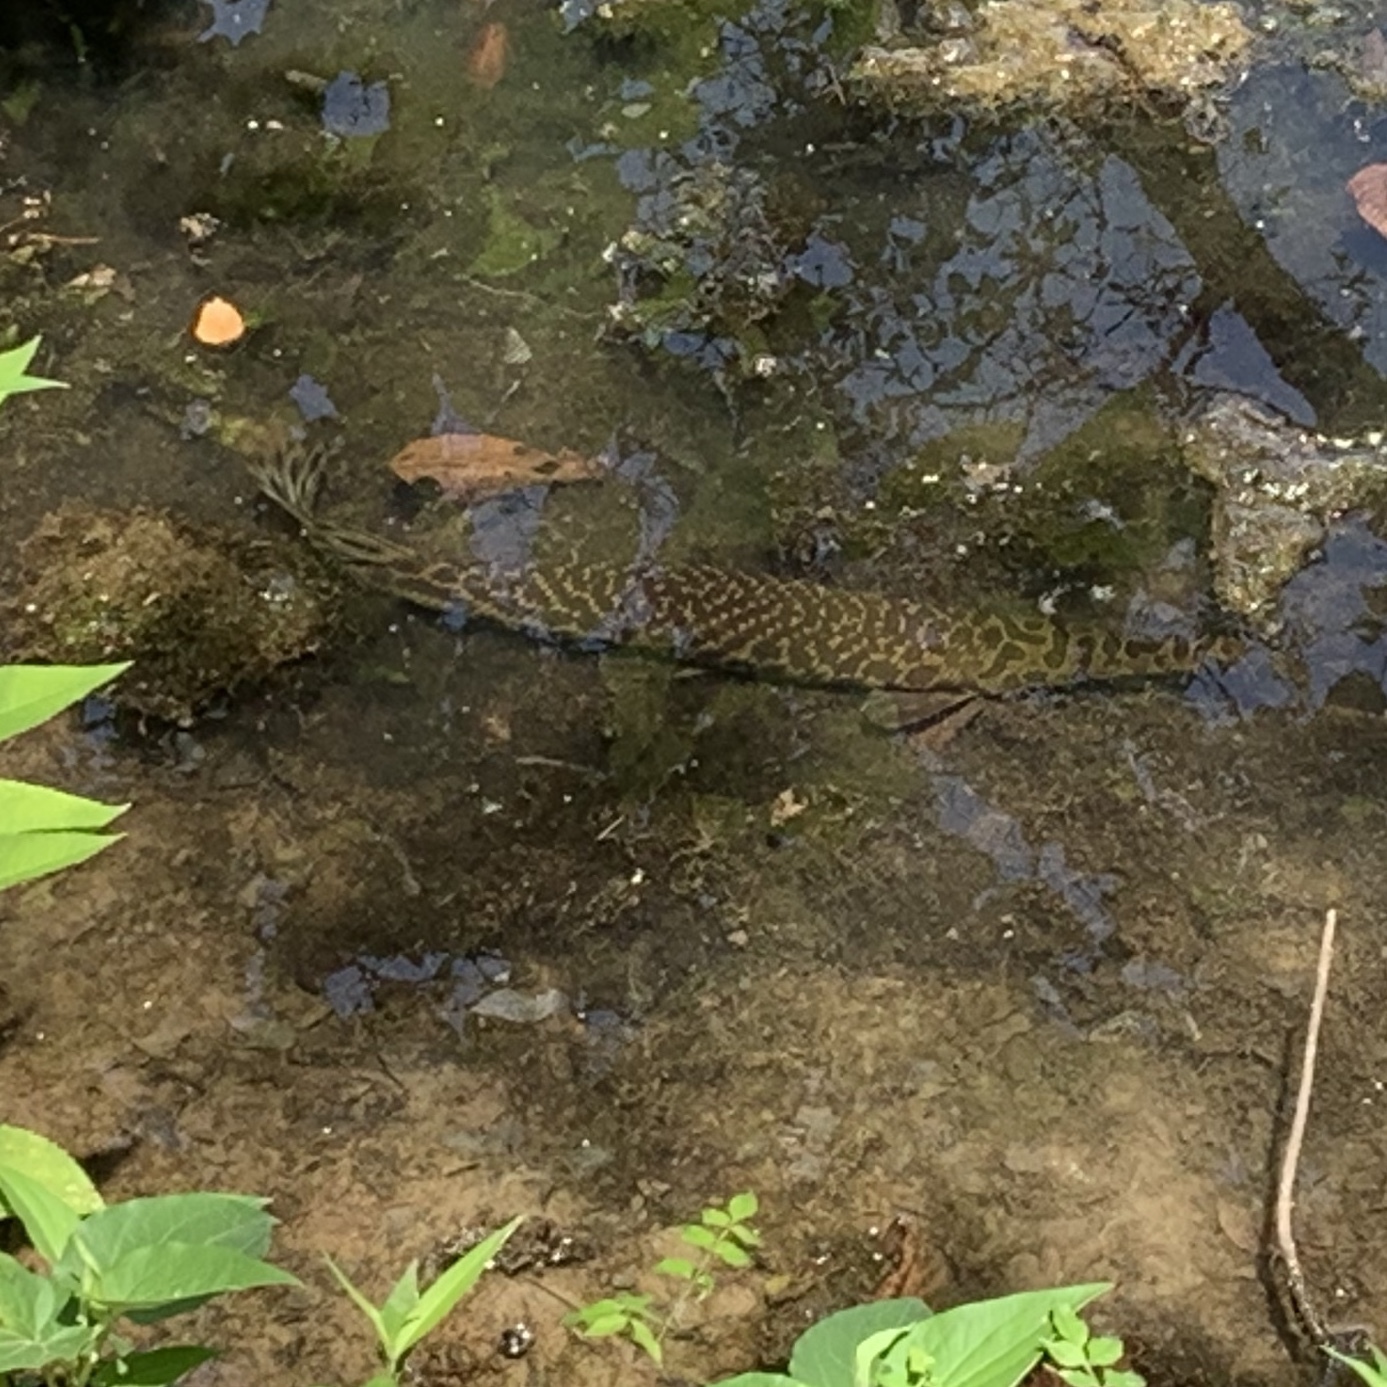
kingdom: Animalia
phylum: Chordata
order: Lepisosteiformes
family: Lepisosteidae
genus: Lepisosteus
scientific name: Lepisosteus oculatus
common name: Spotted gar
